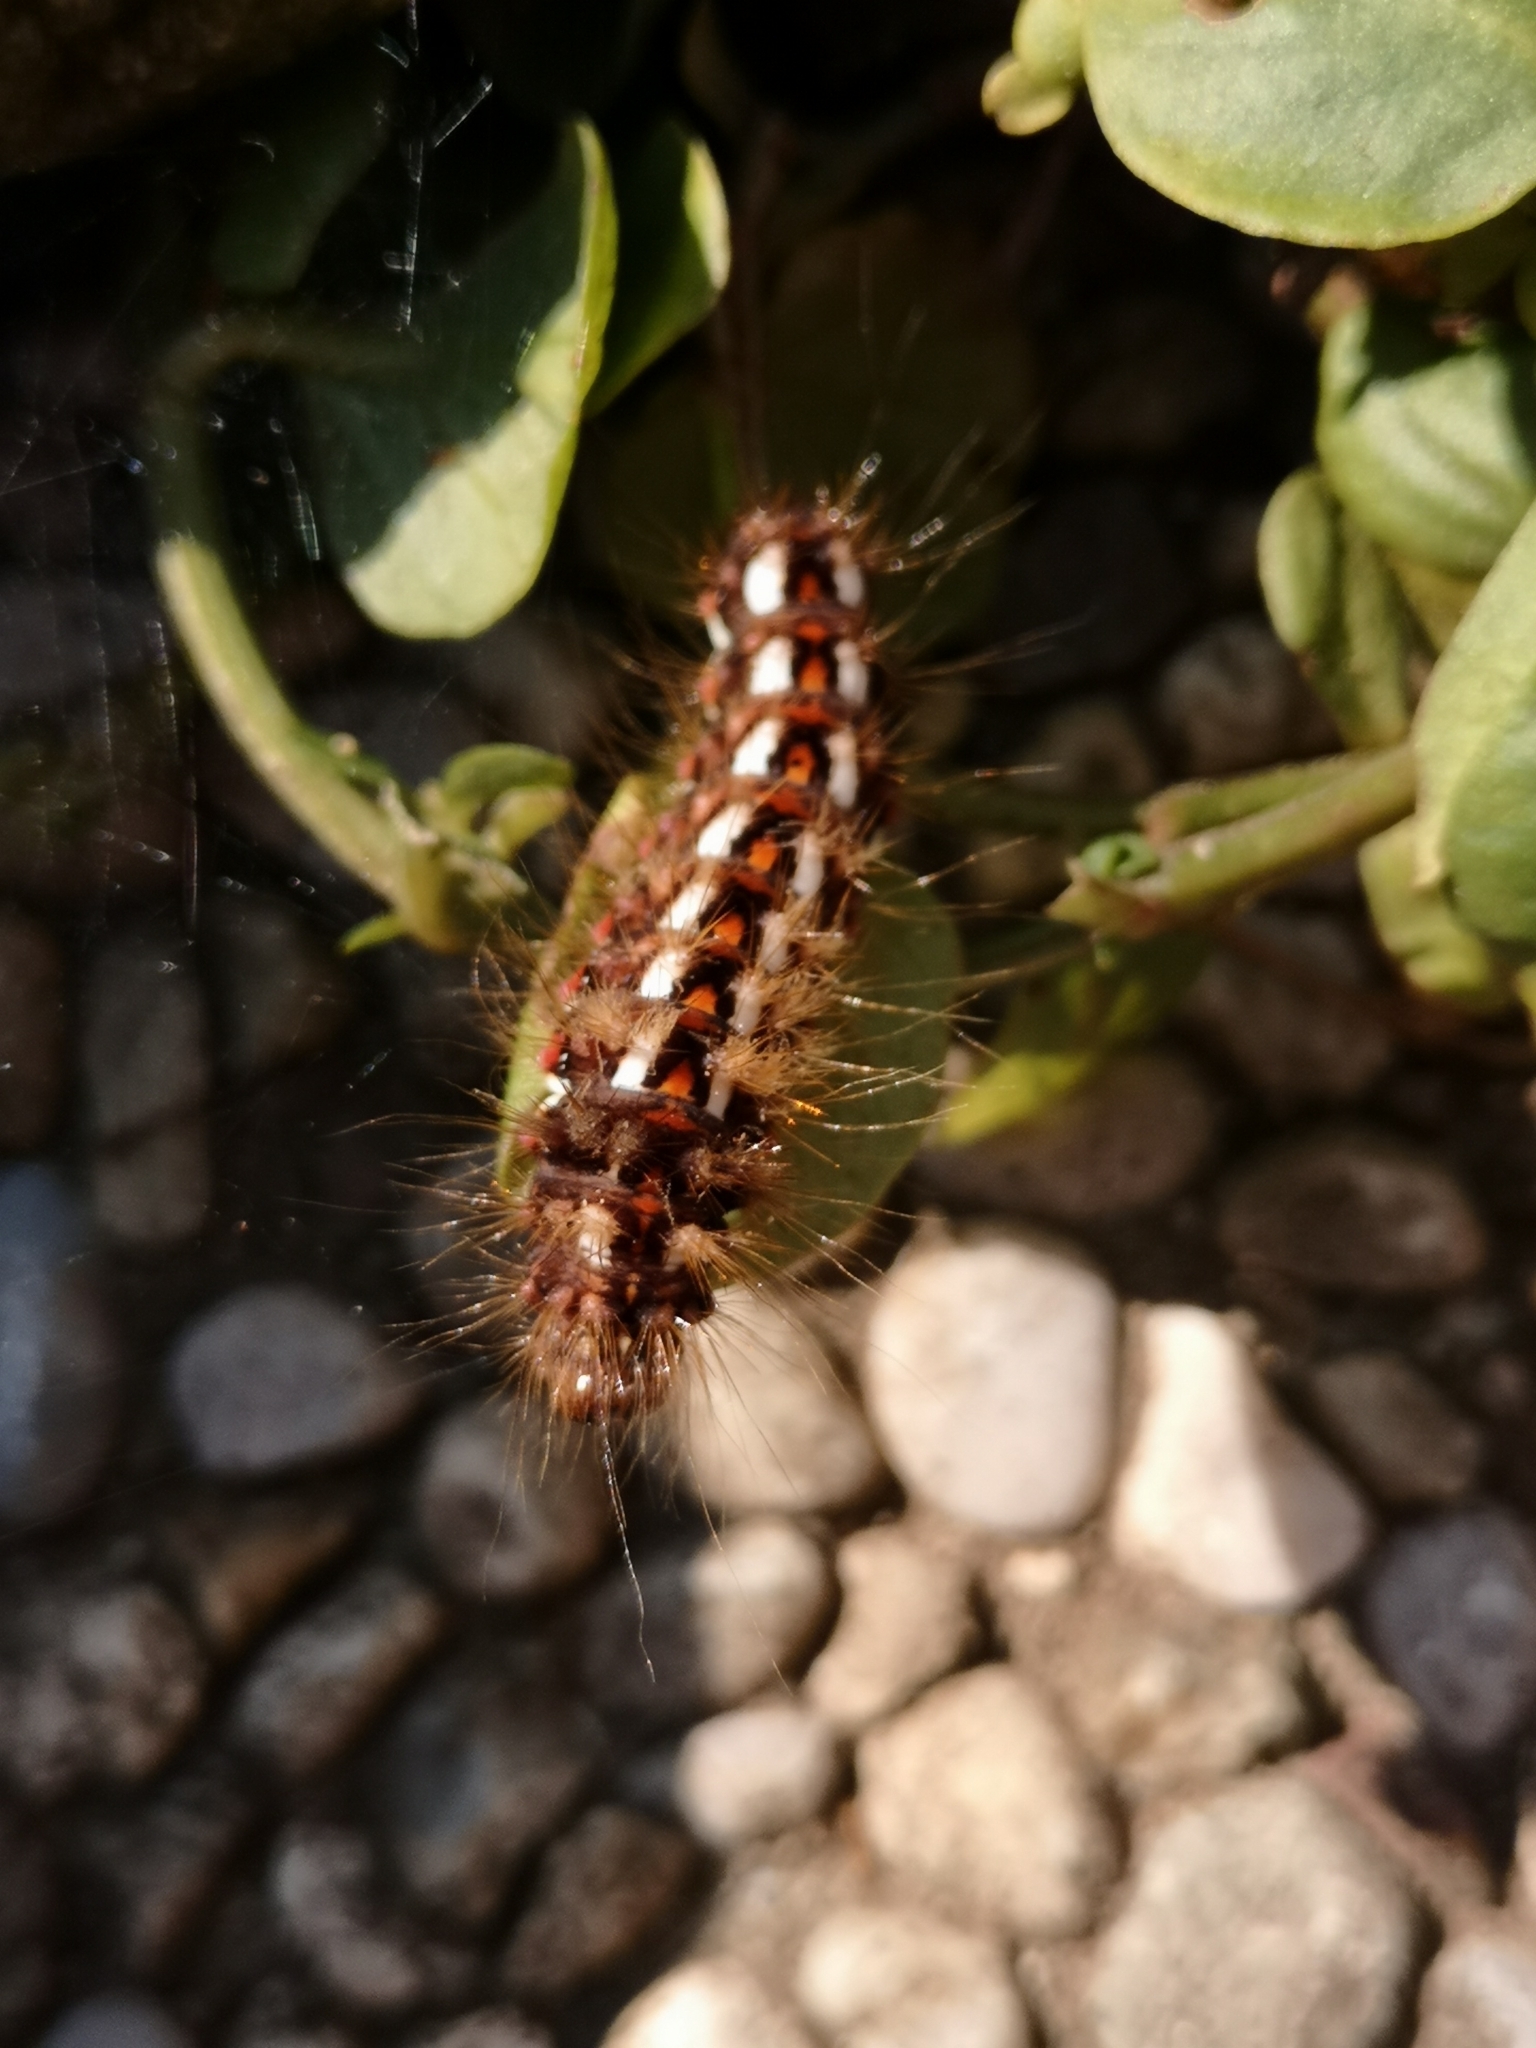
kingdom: Animalia
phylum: Arthropoda
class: Insecta
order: Lepidoptera
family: Noctuidae
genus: Acronicta
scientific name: Acronicta rumicis
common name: Knot grass
